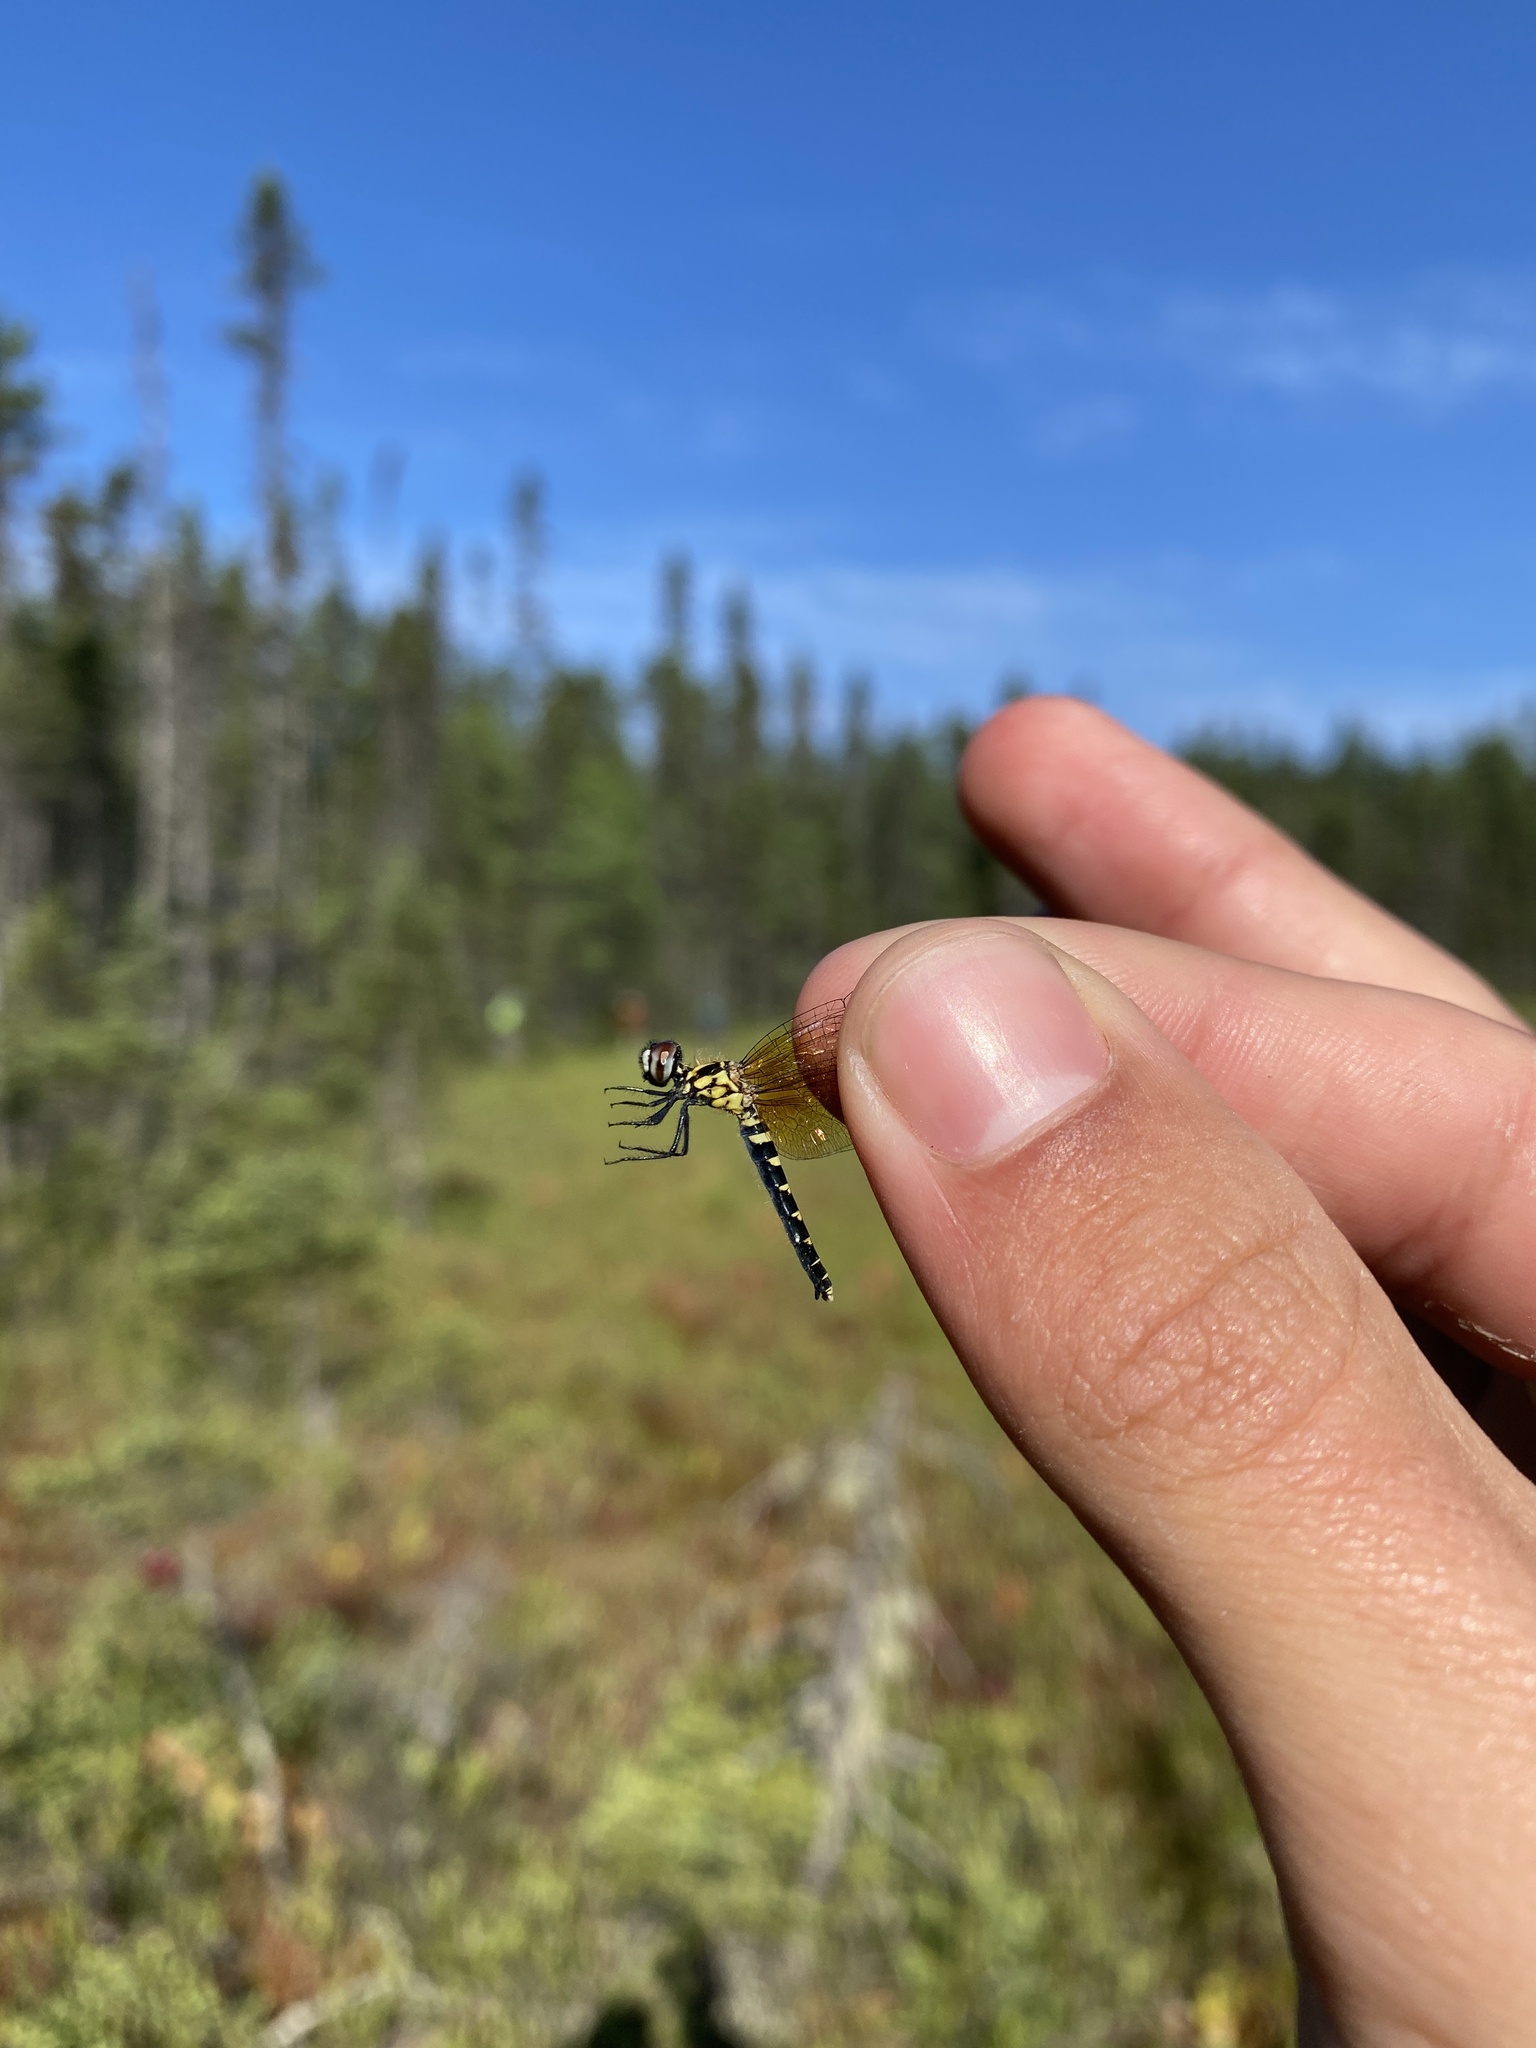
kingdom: Animalia
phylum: Arthropoda
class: Insecta
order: Odonata
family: Libellulidae
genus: Nannothemis
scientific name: Nannothemis bella
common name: Elfin skimmer
